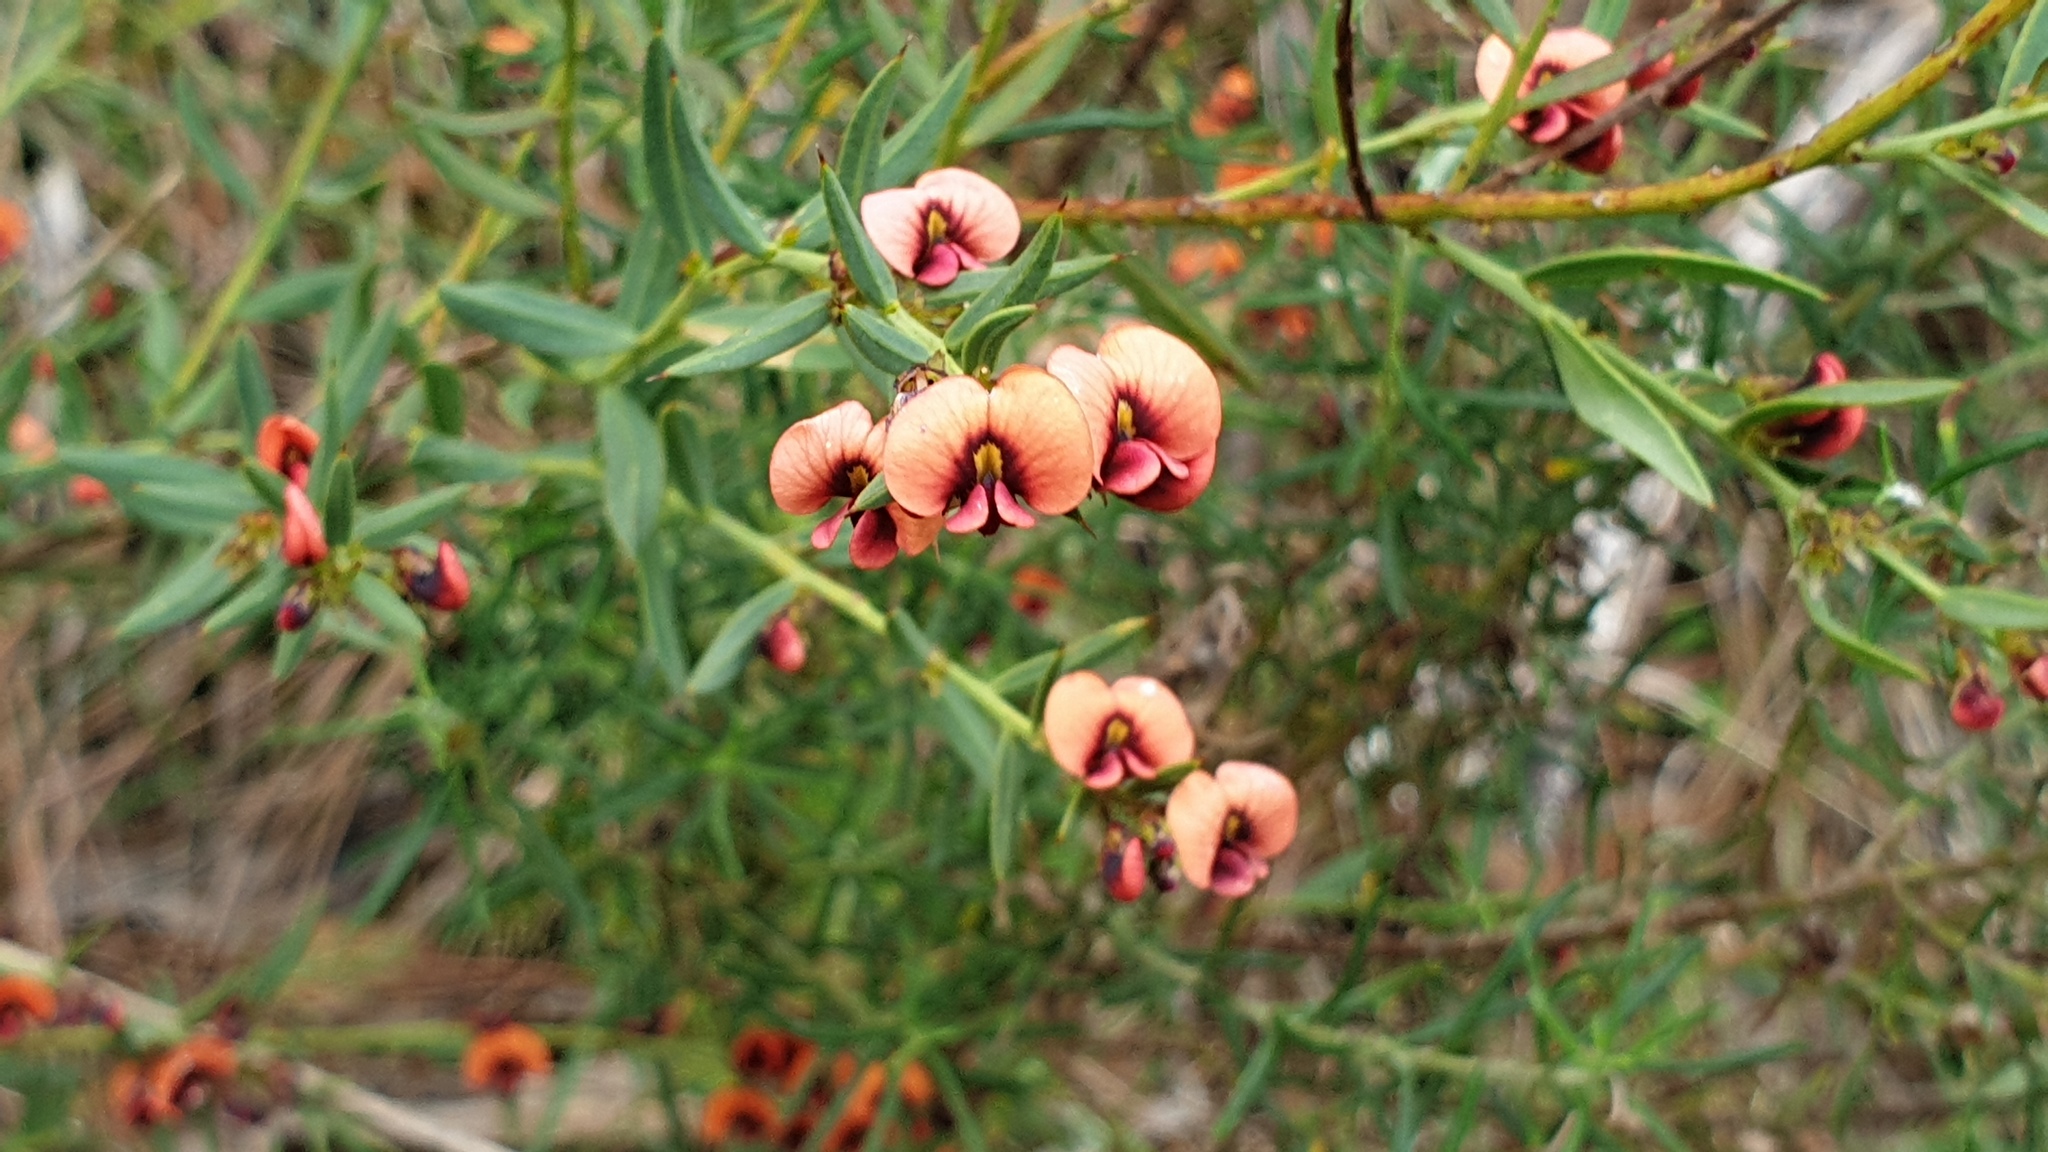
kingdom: Plantae
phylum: Tracheophyta
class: Magnoliopsida
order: Fabales
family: Fabaceae
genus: Daviesia
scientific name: Daviesia ulicifolia
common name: Gorse bitter-pea
